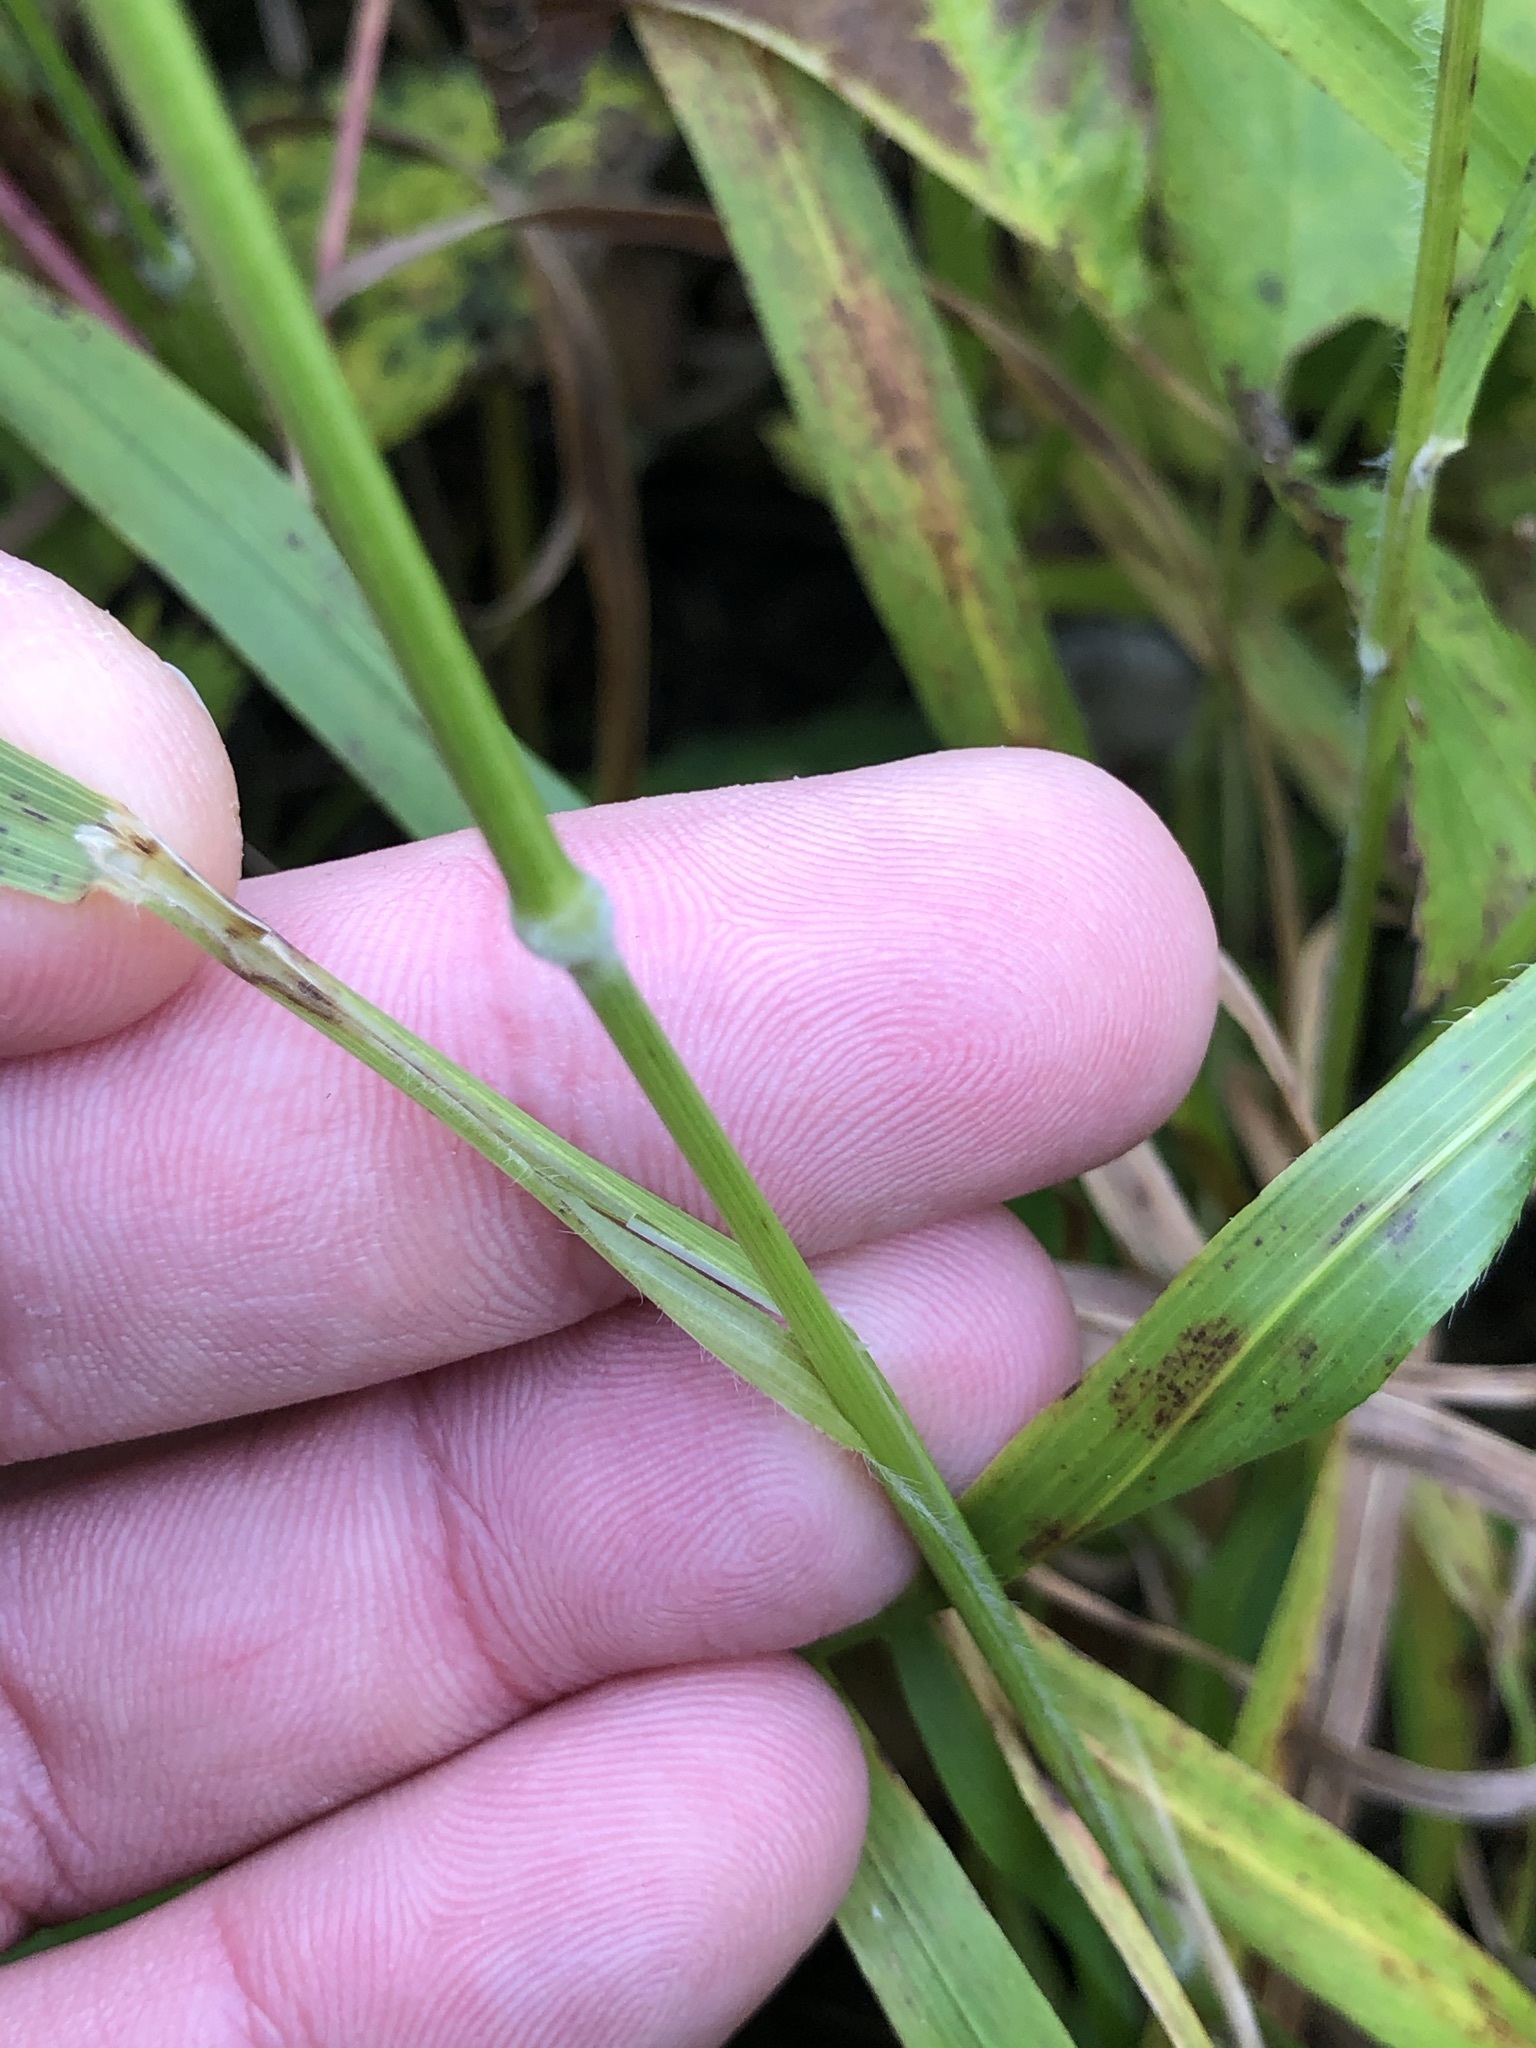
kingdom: Plantae
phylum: Tracheophyta
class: Liliopsida
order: Poales
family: Poaceae
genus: Brachypodium
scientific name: Brachypodium sylvaticum
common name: False-brome
